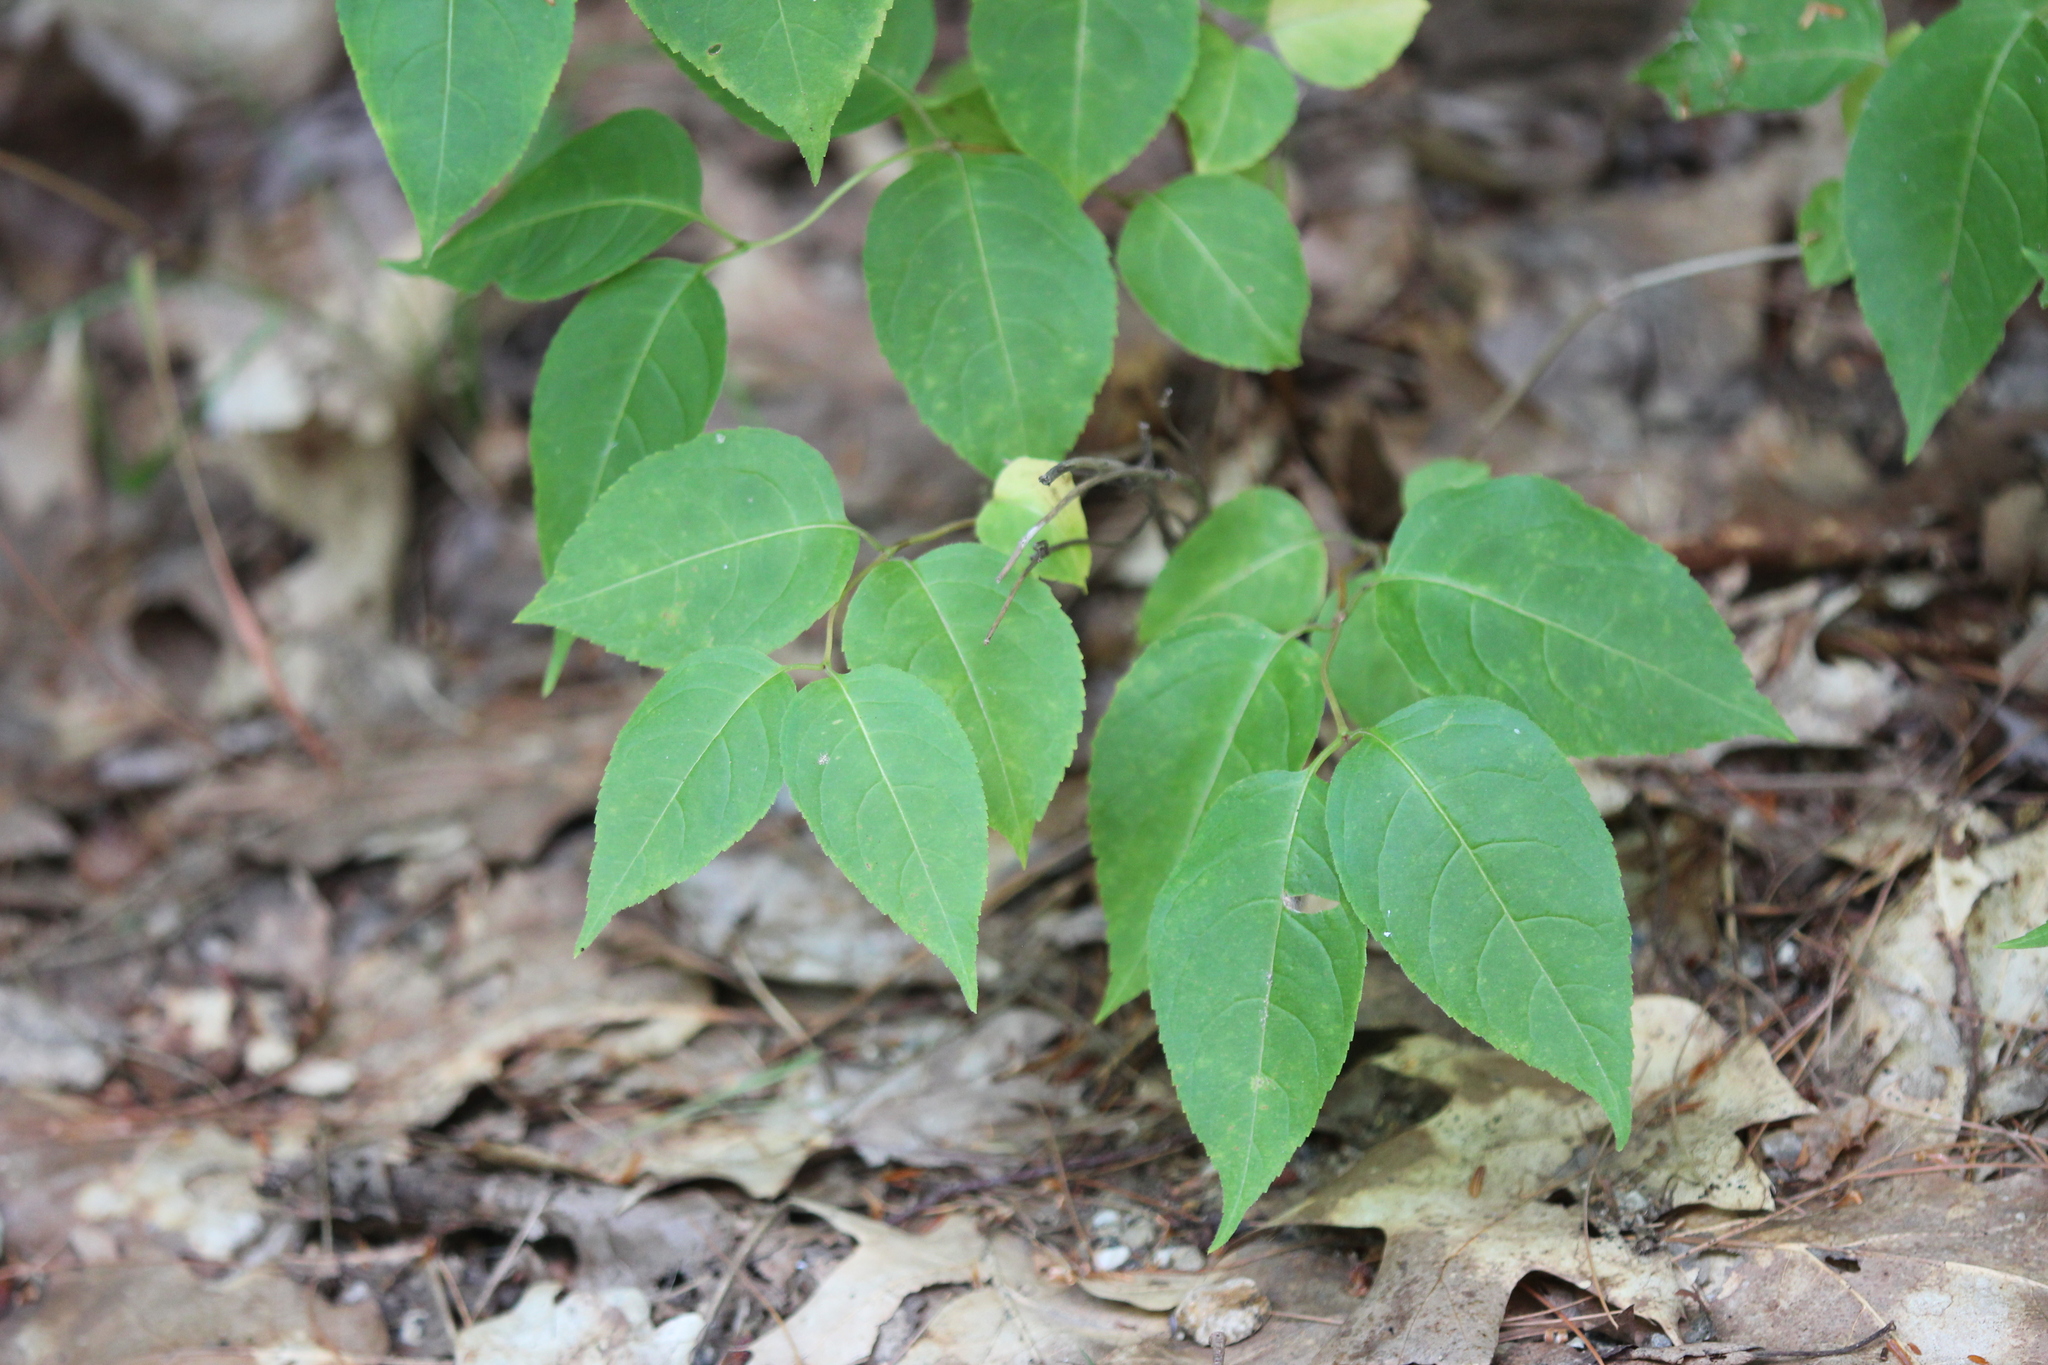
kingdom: Plantae
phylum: Tracheophyta
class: Magnoliopsida
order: Dipsacales
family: Caprifoliaceae
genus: Diervilla
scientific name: Diervilla lonicera
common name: Bush-honeysuckle
